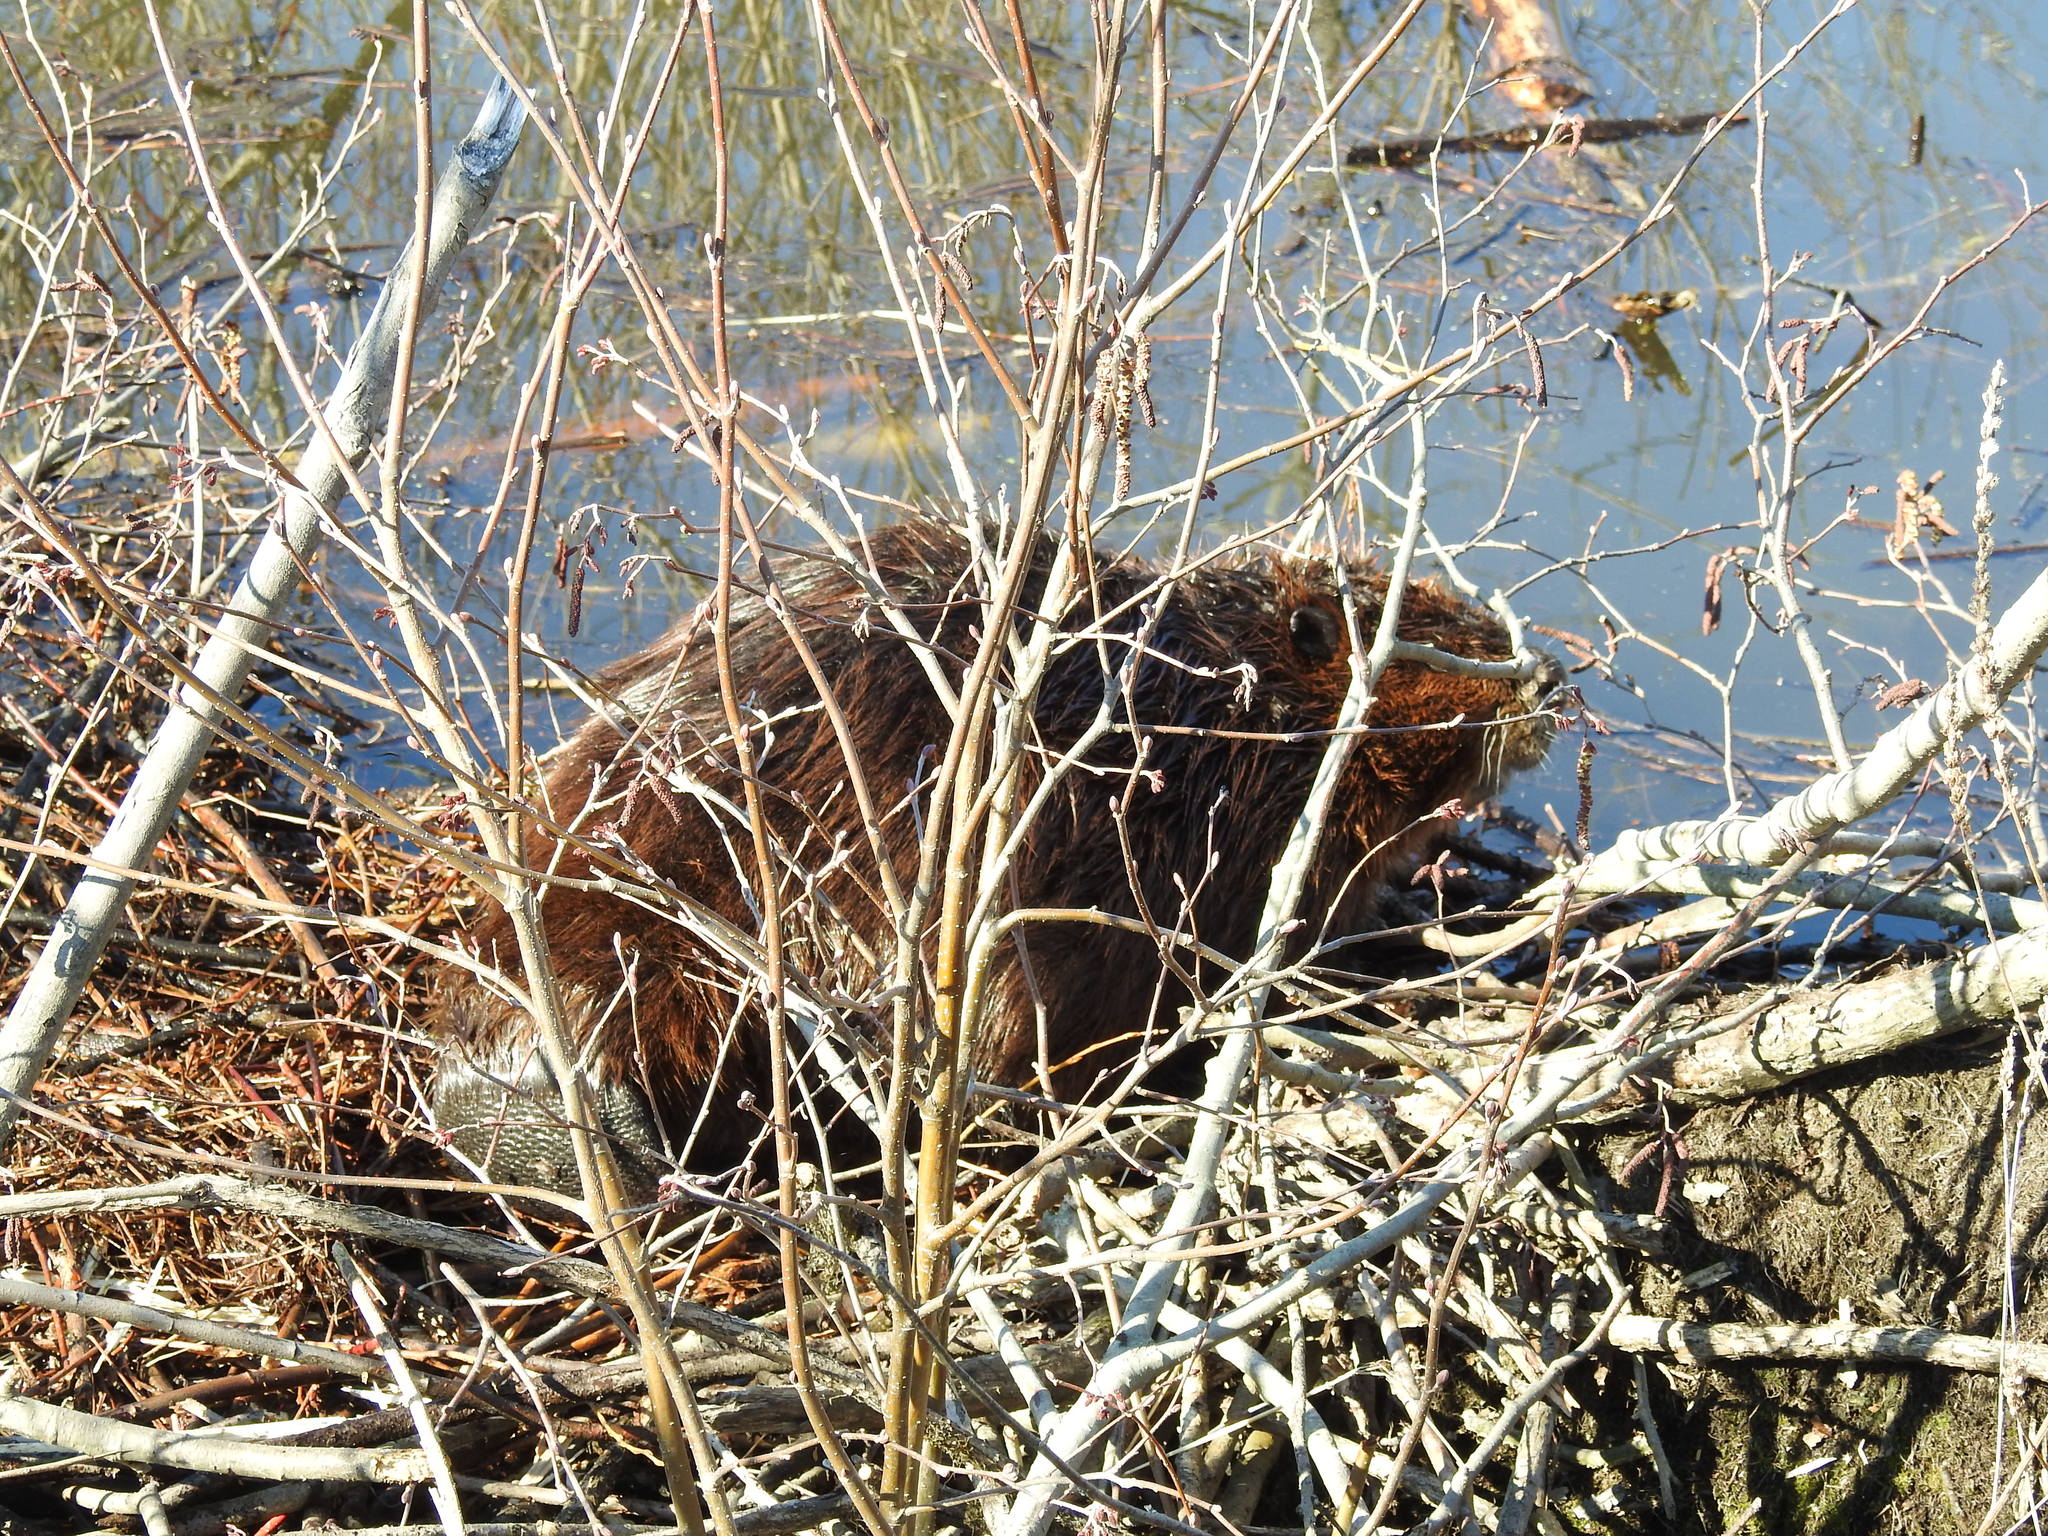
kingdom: Animalia
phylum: Chordata
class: Mammalia
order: Rodentia
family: Castoridae
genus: Castor
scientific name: Castor canadensis
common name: American beaver
